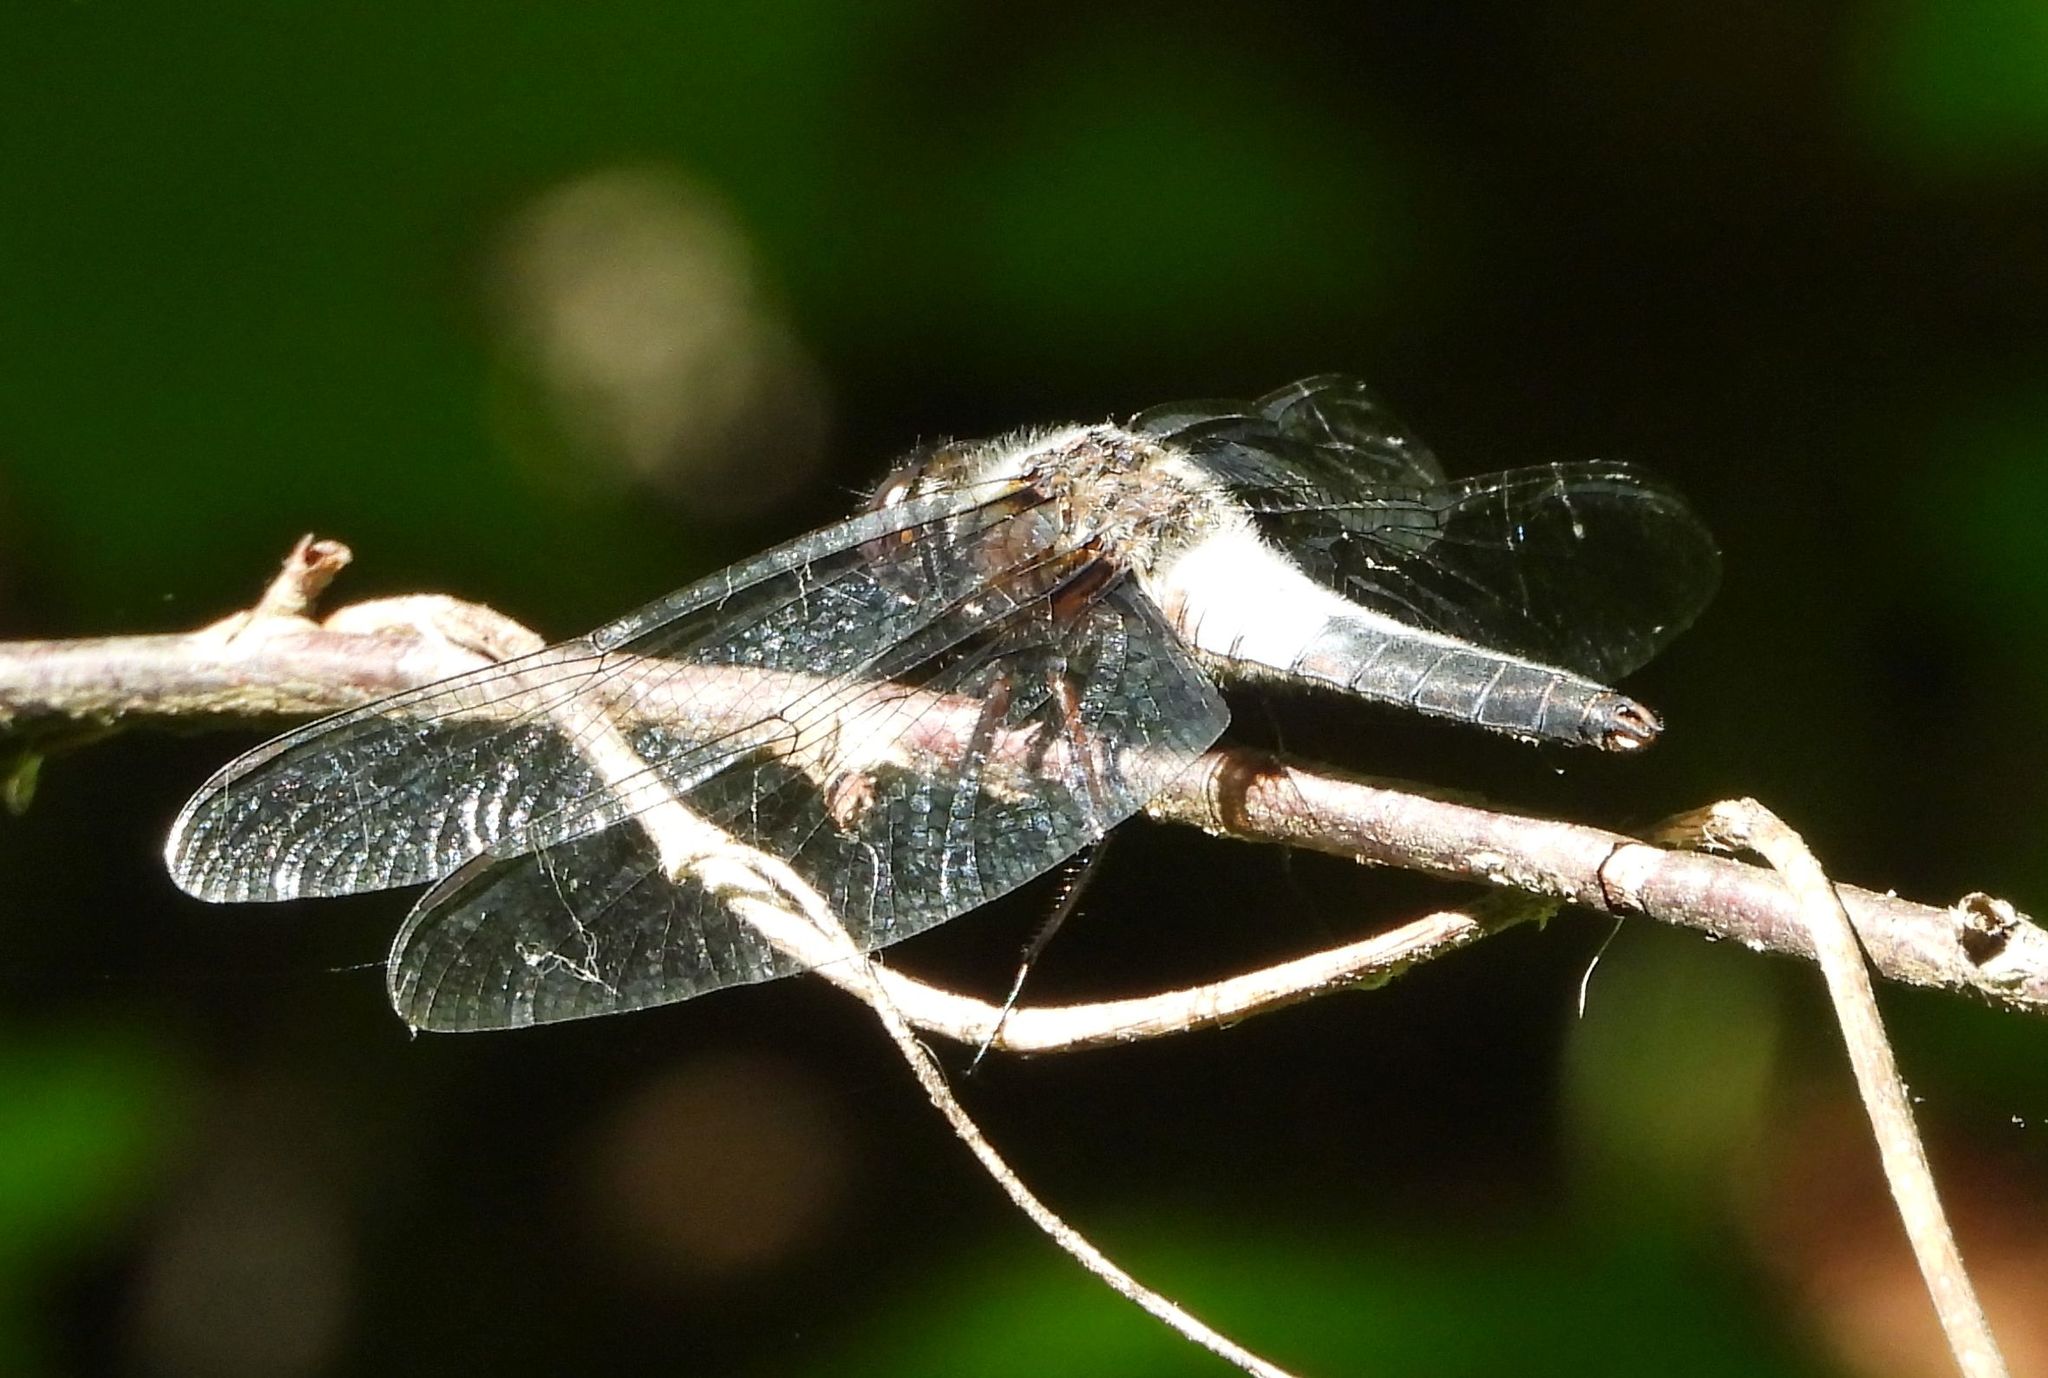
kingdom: Animalia
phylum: Arthropoda
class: Insecta
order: Odonata
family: Libellulidae
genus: Ladona
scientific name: Ladona julia
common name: Chalk-fronted corporal
